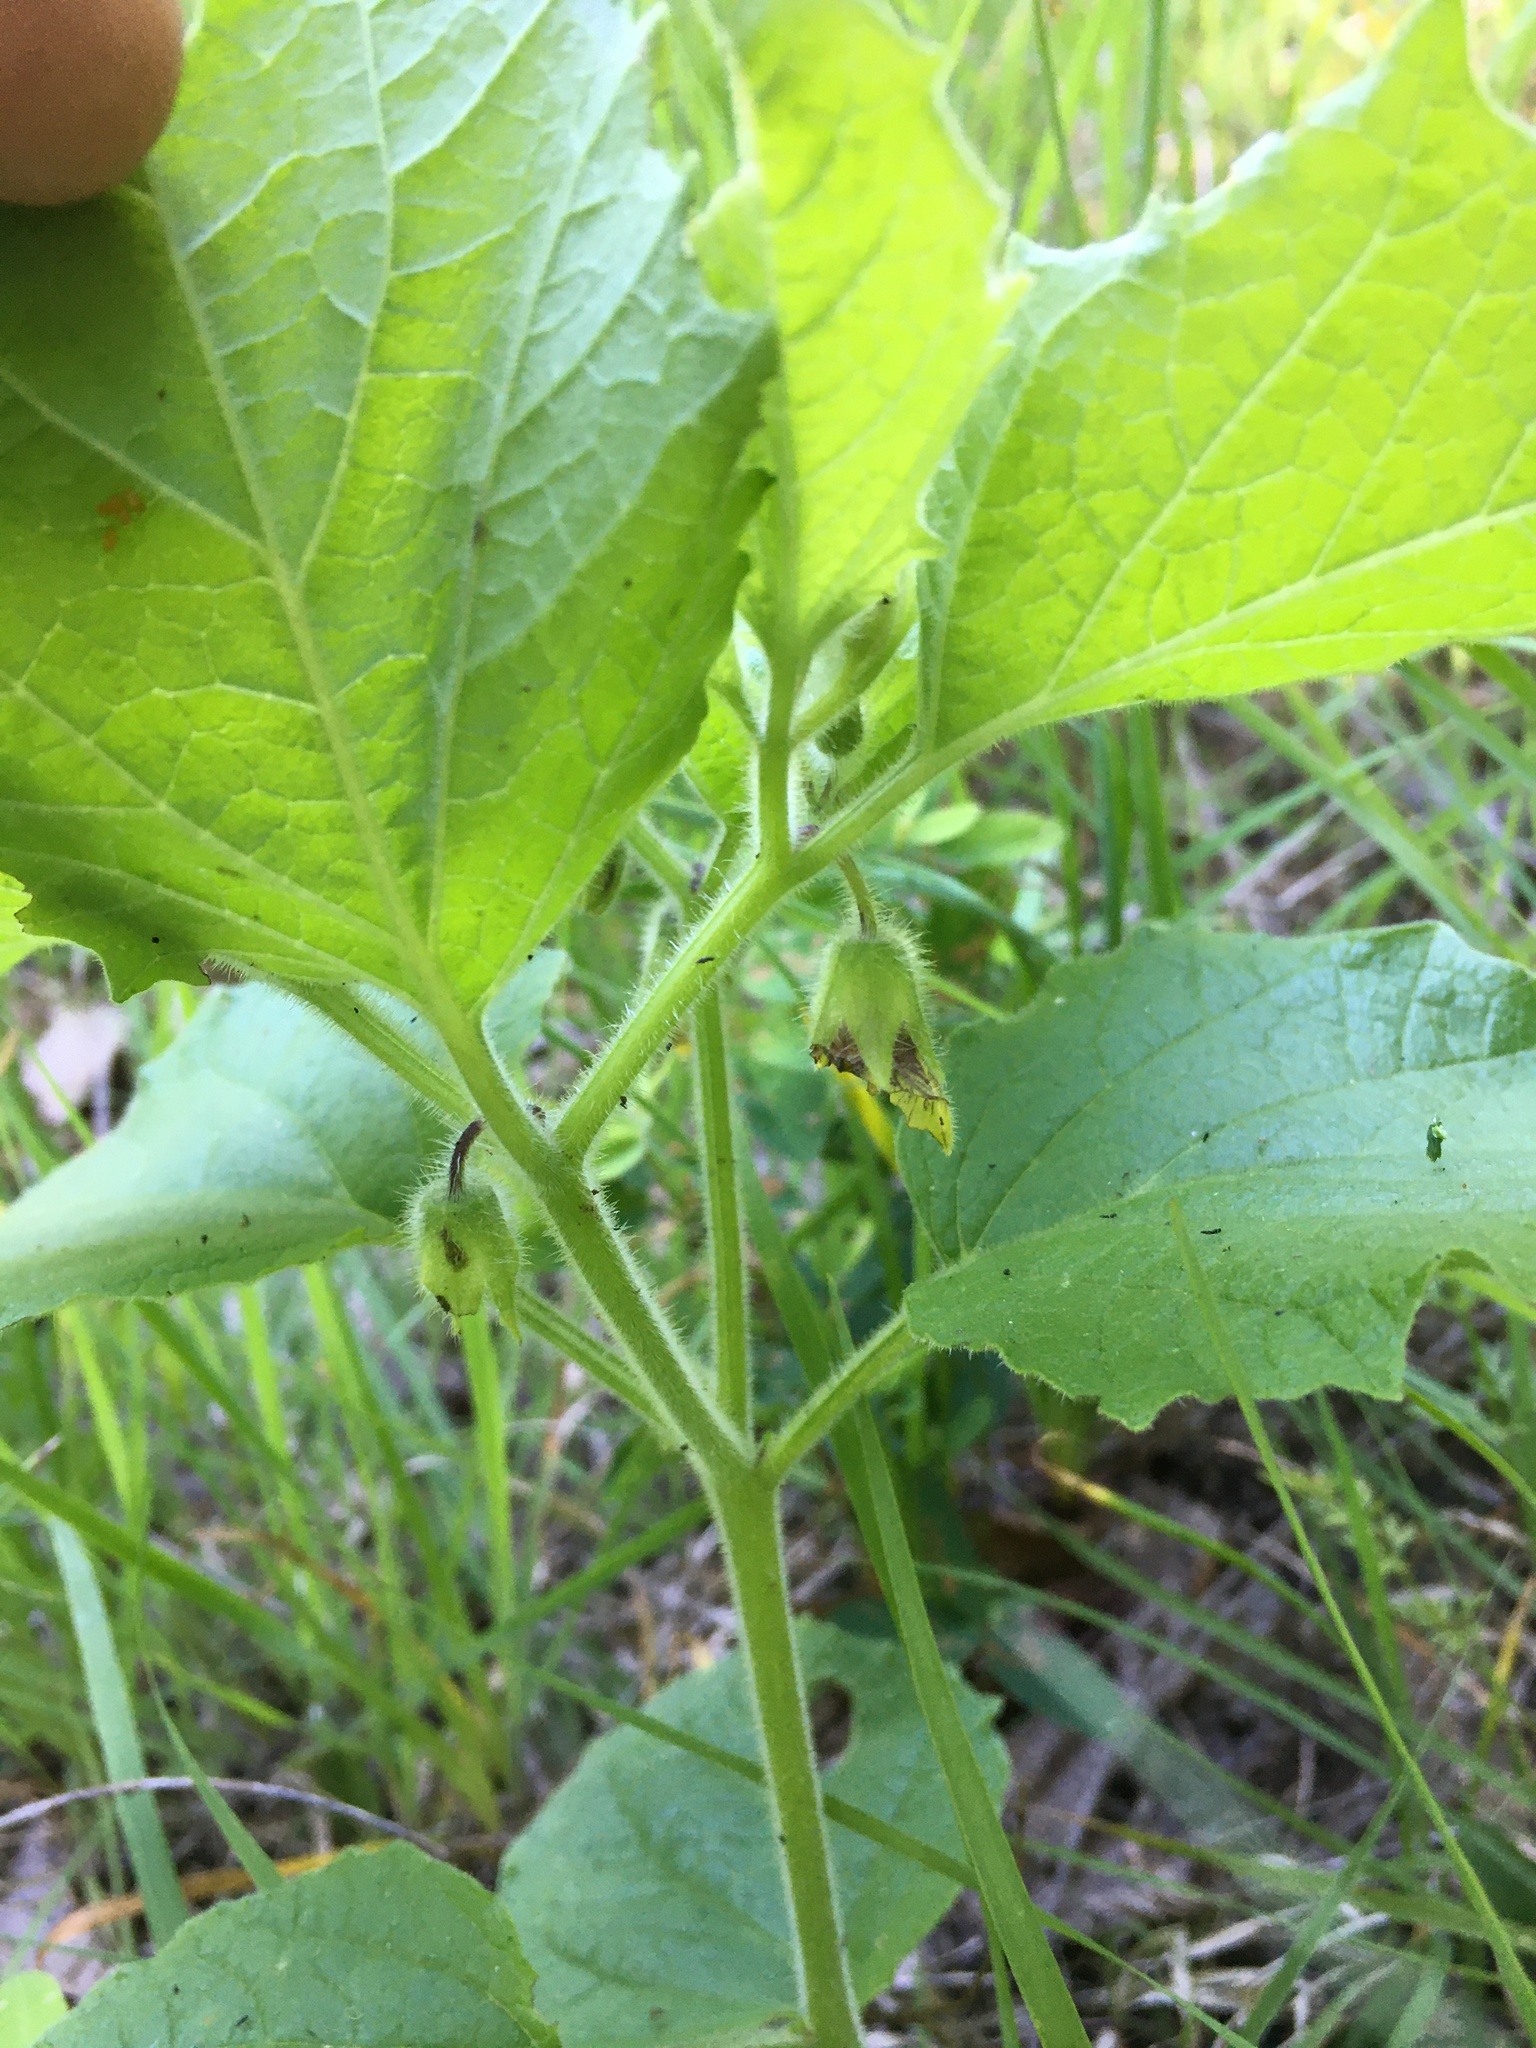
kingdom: Plantae
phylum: Tracheophyta
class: Magnoliopsida
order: Solanales
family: Solanaceae
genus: Physalis
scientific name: Physalis heterophylla
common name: Clammy ground-cherry
